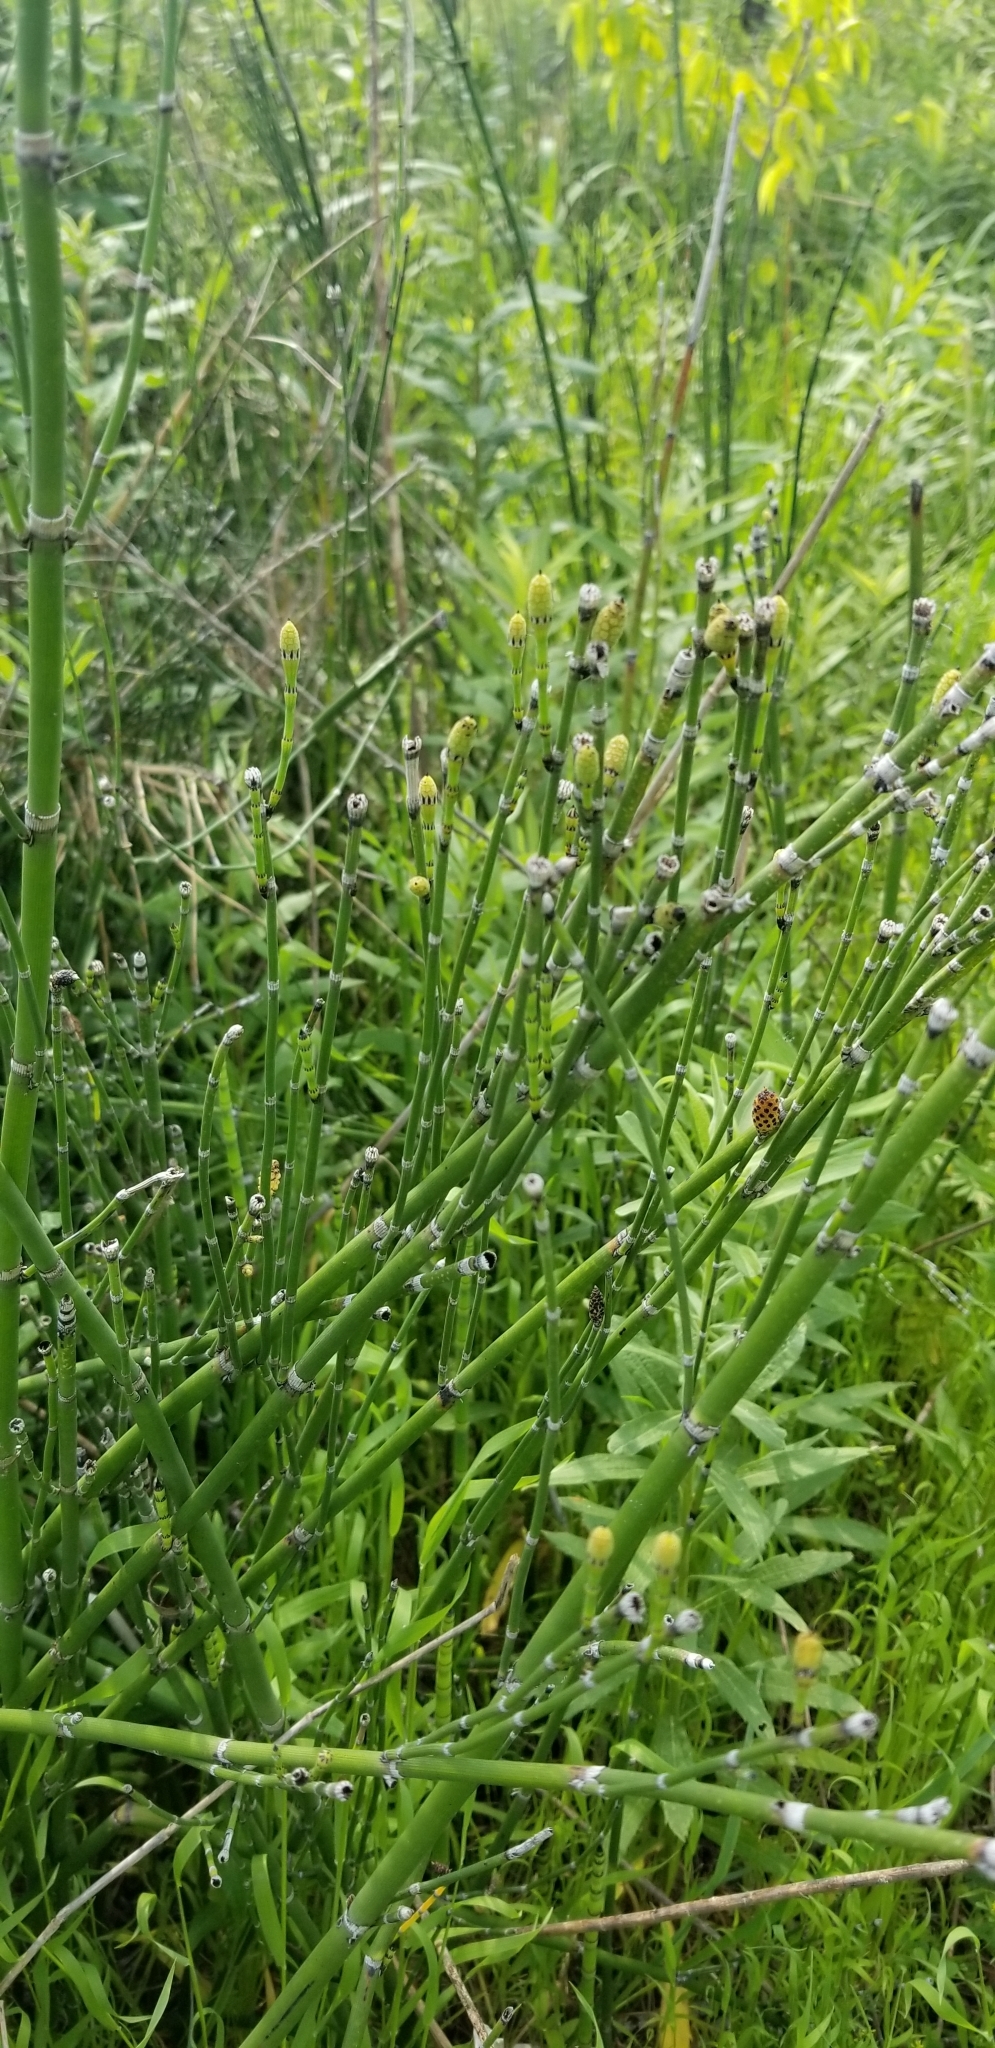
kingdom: Plantae
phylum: Tracheophyta
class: Polypodiopsida
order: Equisetales
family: Equisetaceae
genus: Equisetum
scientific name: Equisetum hyemale
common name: Rough horsetail
